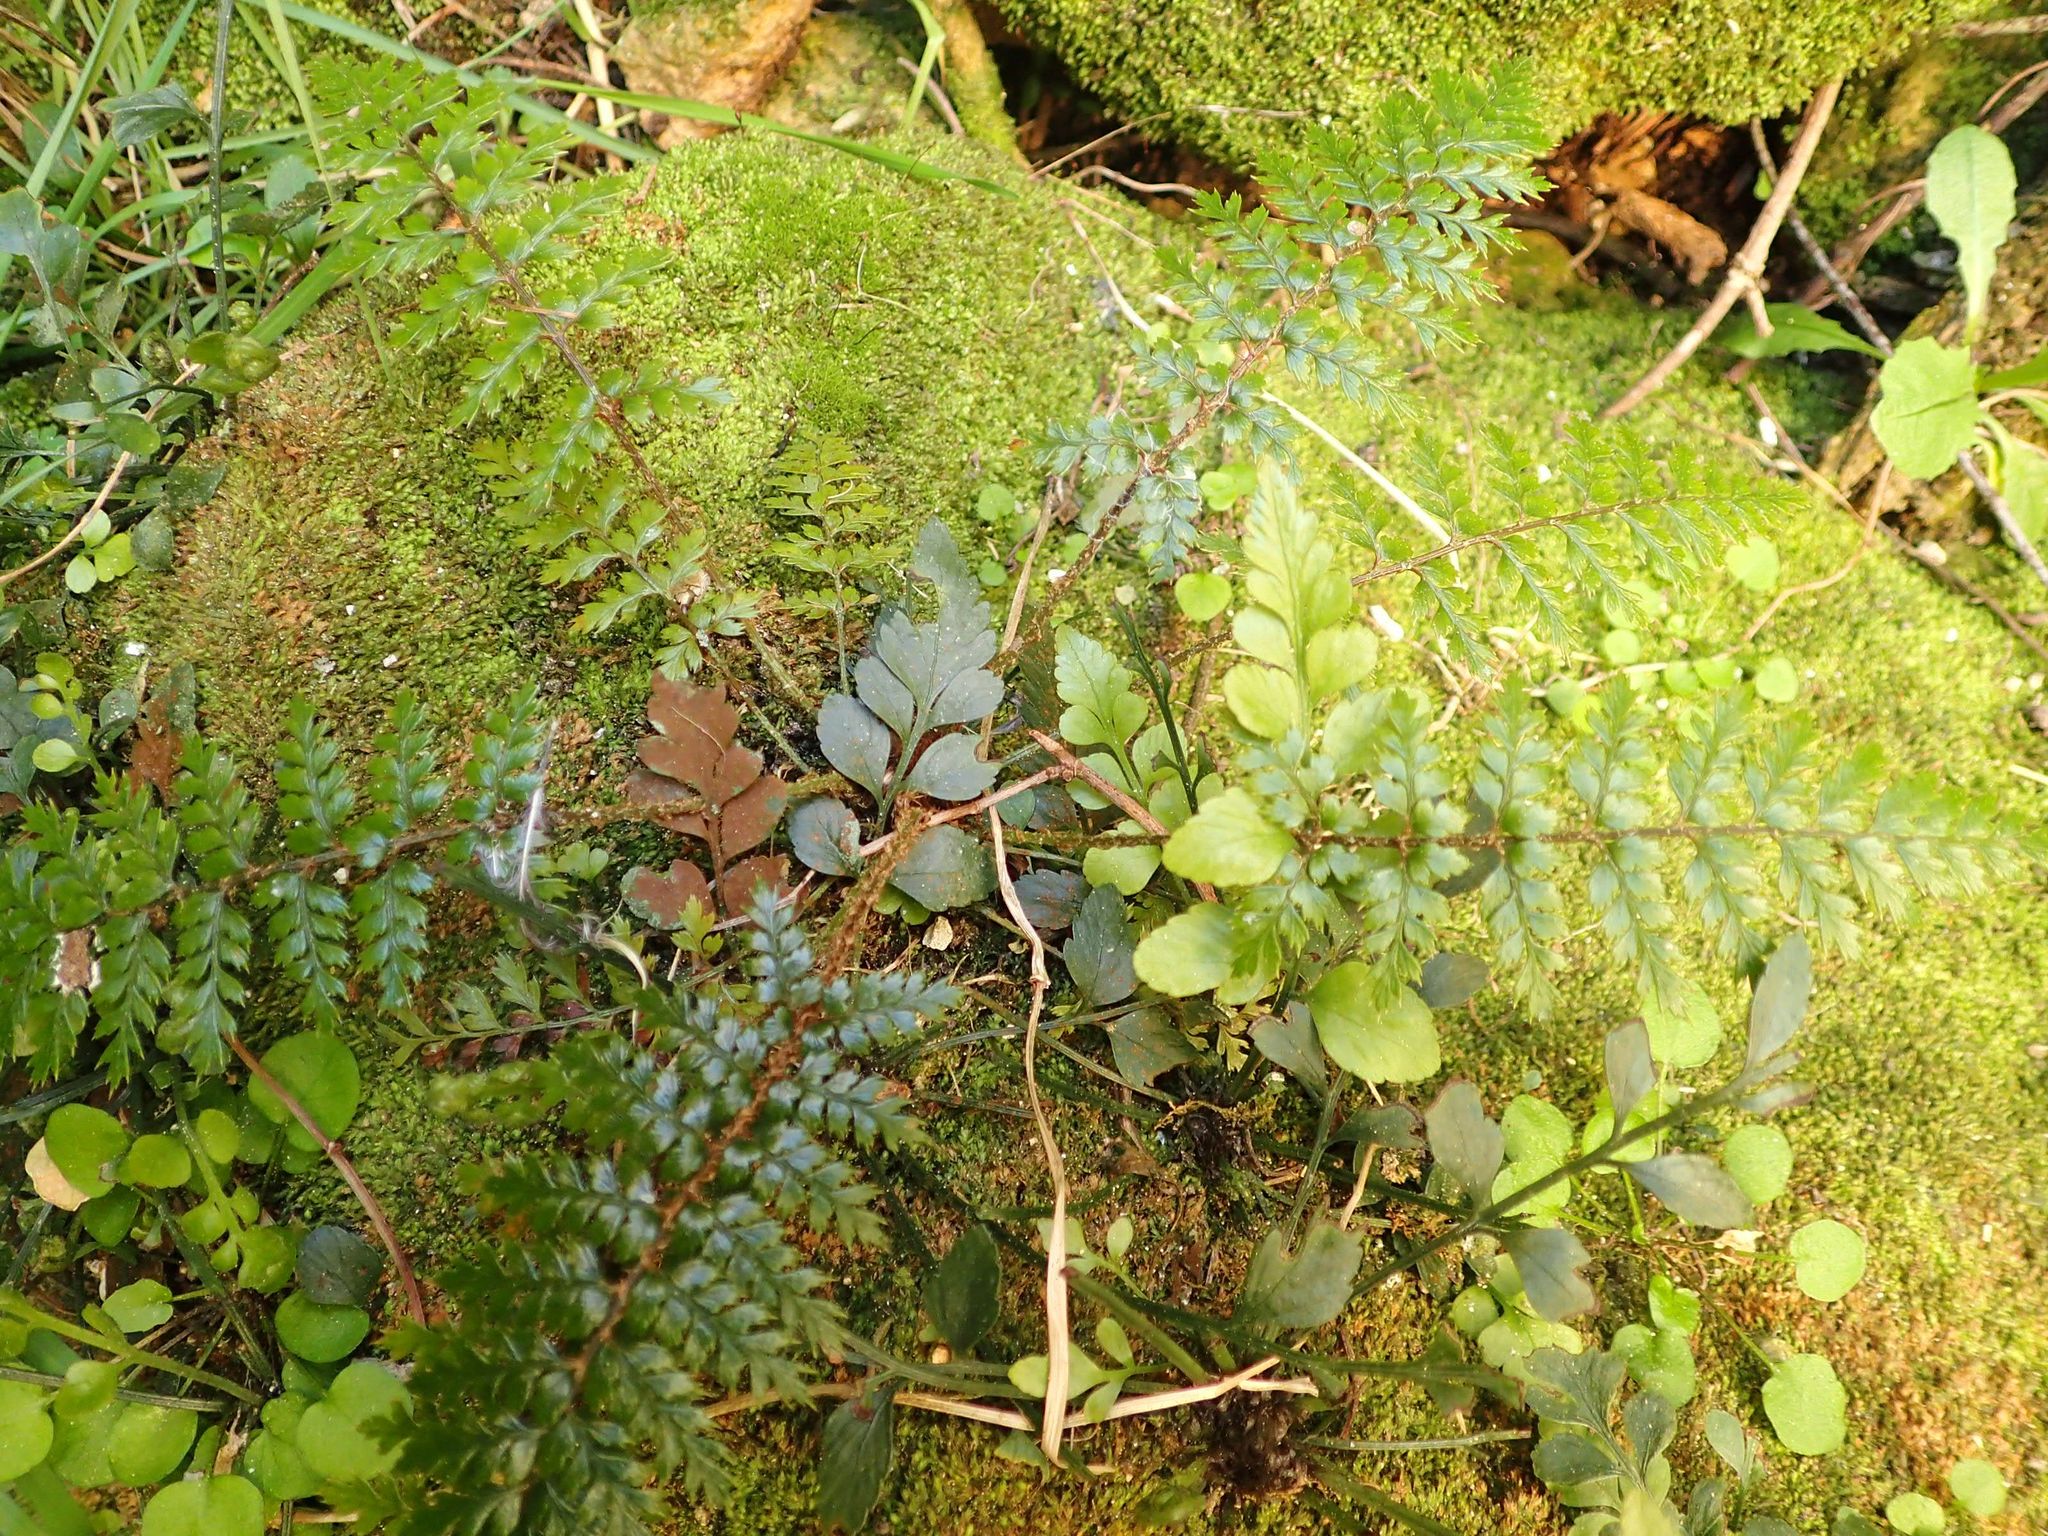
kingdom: Plantae
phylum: Tracheophyta
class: Polypodiopsida
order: Polypodiales
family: Dryopteridaceae
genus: Polystichum
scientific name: Polystichum vestitum
